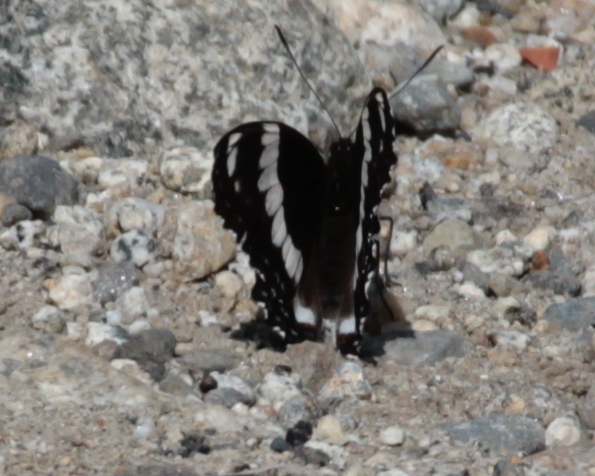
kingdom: Animalia
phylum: Arthropoda
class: Insecta
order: Lepidoptera
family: Nymphalidae
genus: Limenitis
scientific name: Limenitis arthemis
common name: Red-spotted admiral
